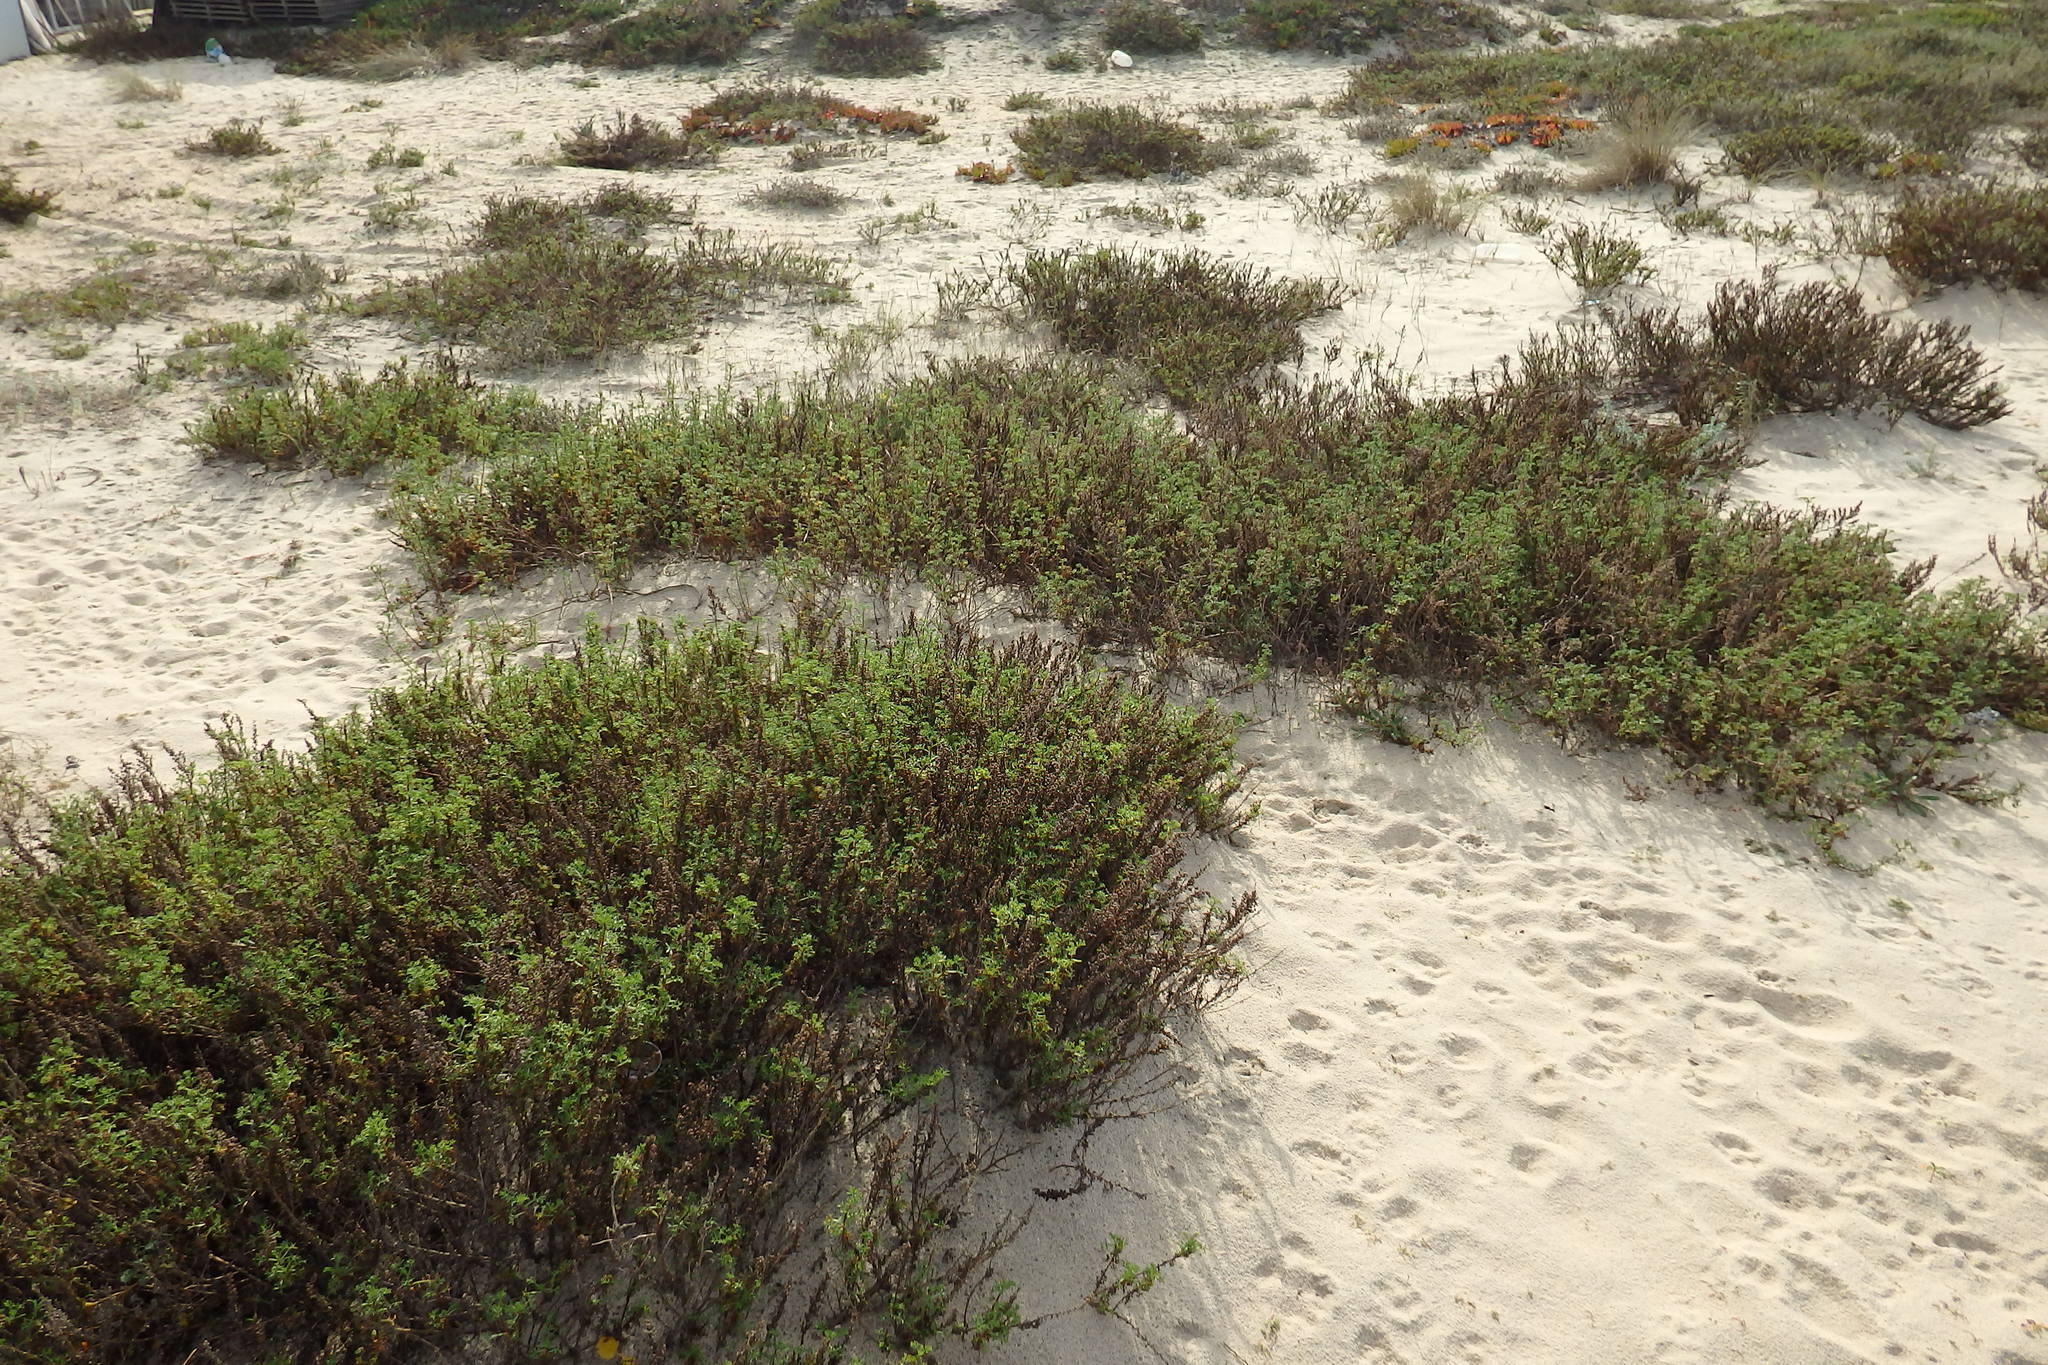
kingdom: Plantae
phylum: Tracheophyta
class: Magnoliopsida
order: Asterales
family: Asteraceae
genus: Artemisia
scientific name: Artemisia crithmifolia
